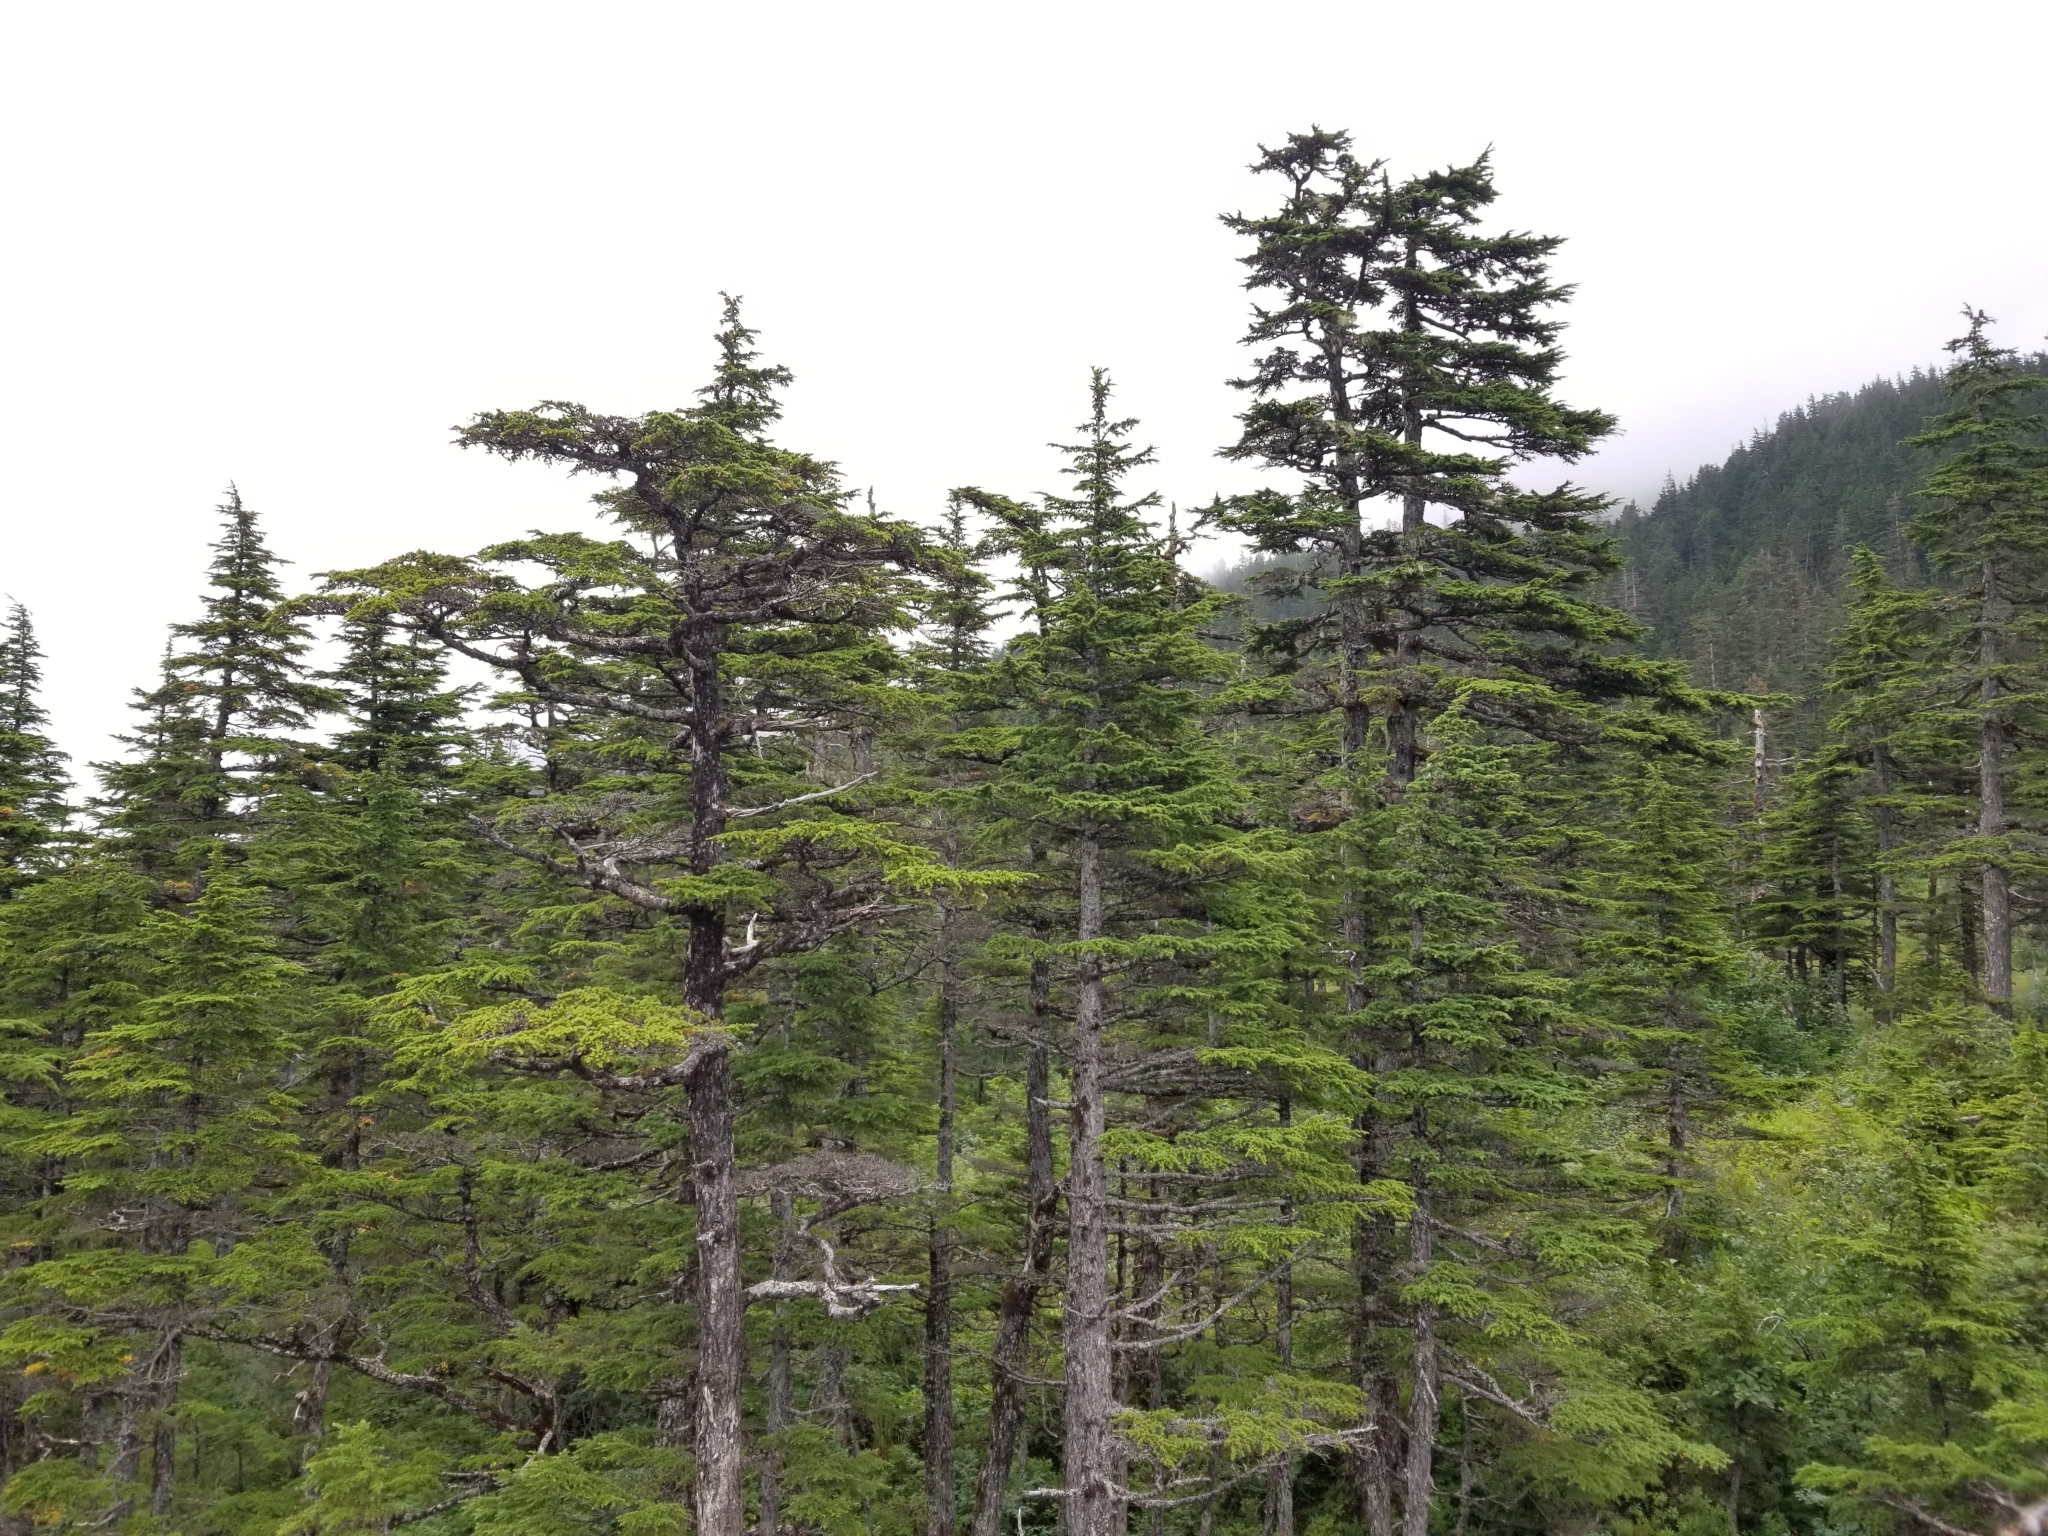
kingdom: Plantae
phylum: Tracheophyta
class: Pinopsida
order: Pinales
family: Pinaceae
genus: Tsuga
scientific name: Tsuga mertensiana
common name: Mountain hemlock
